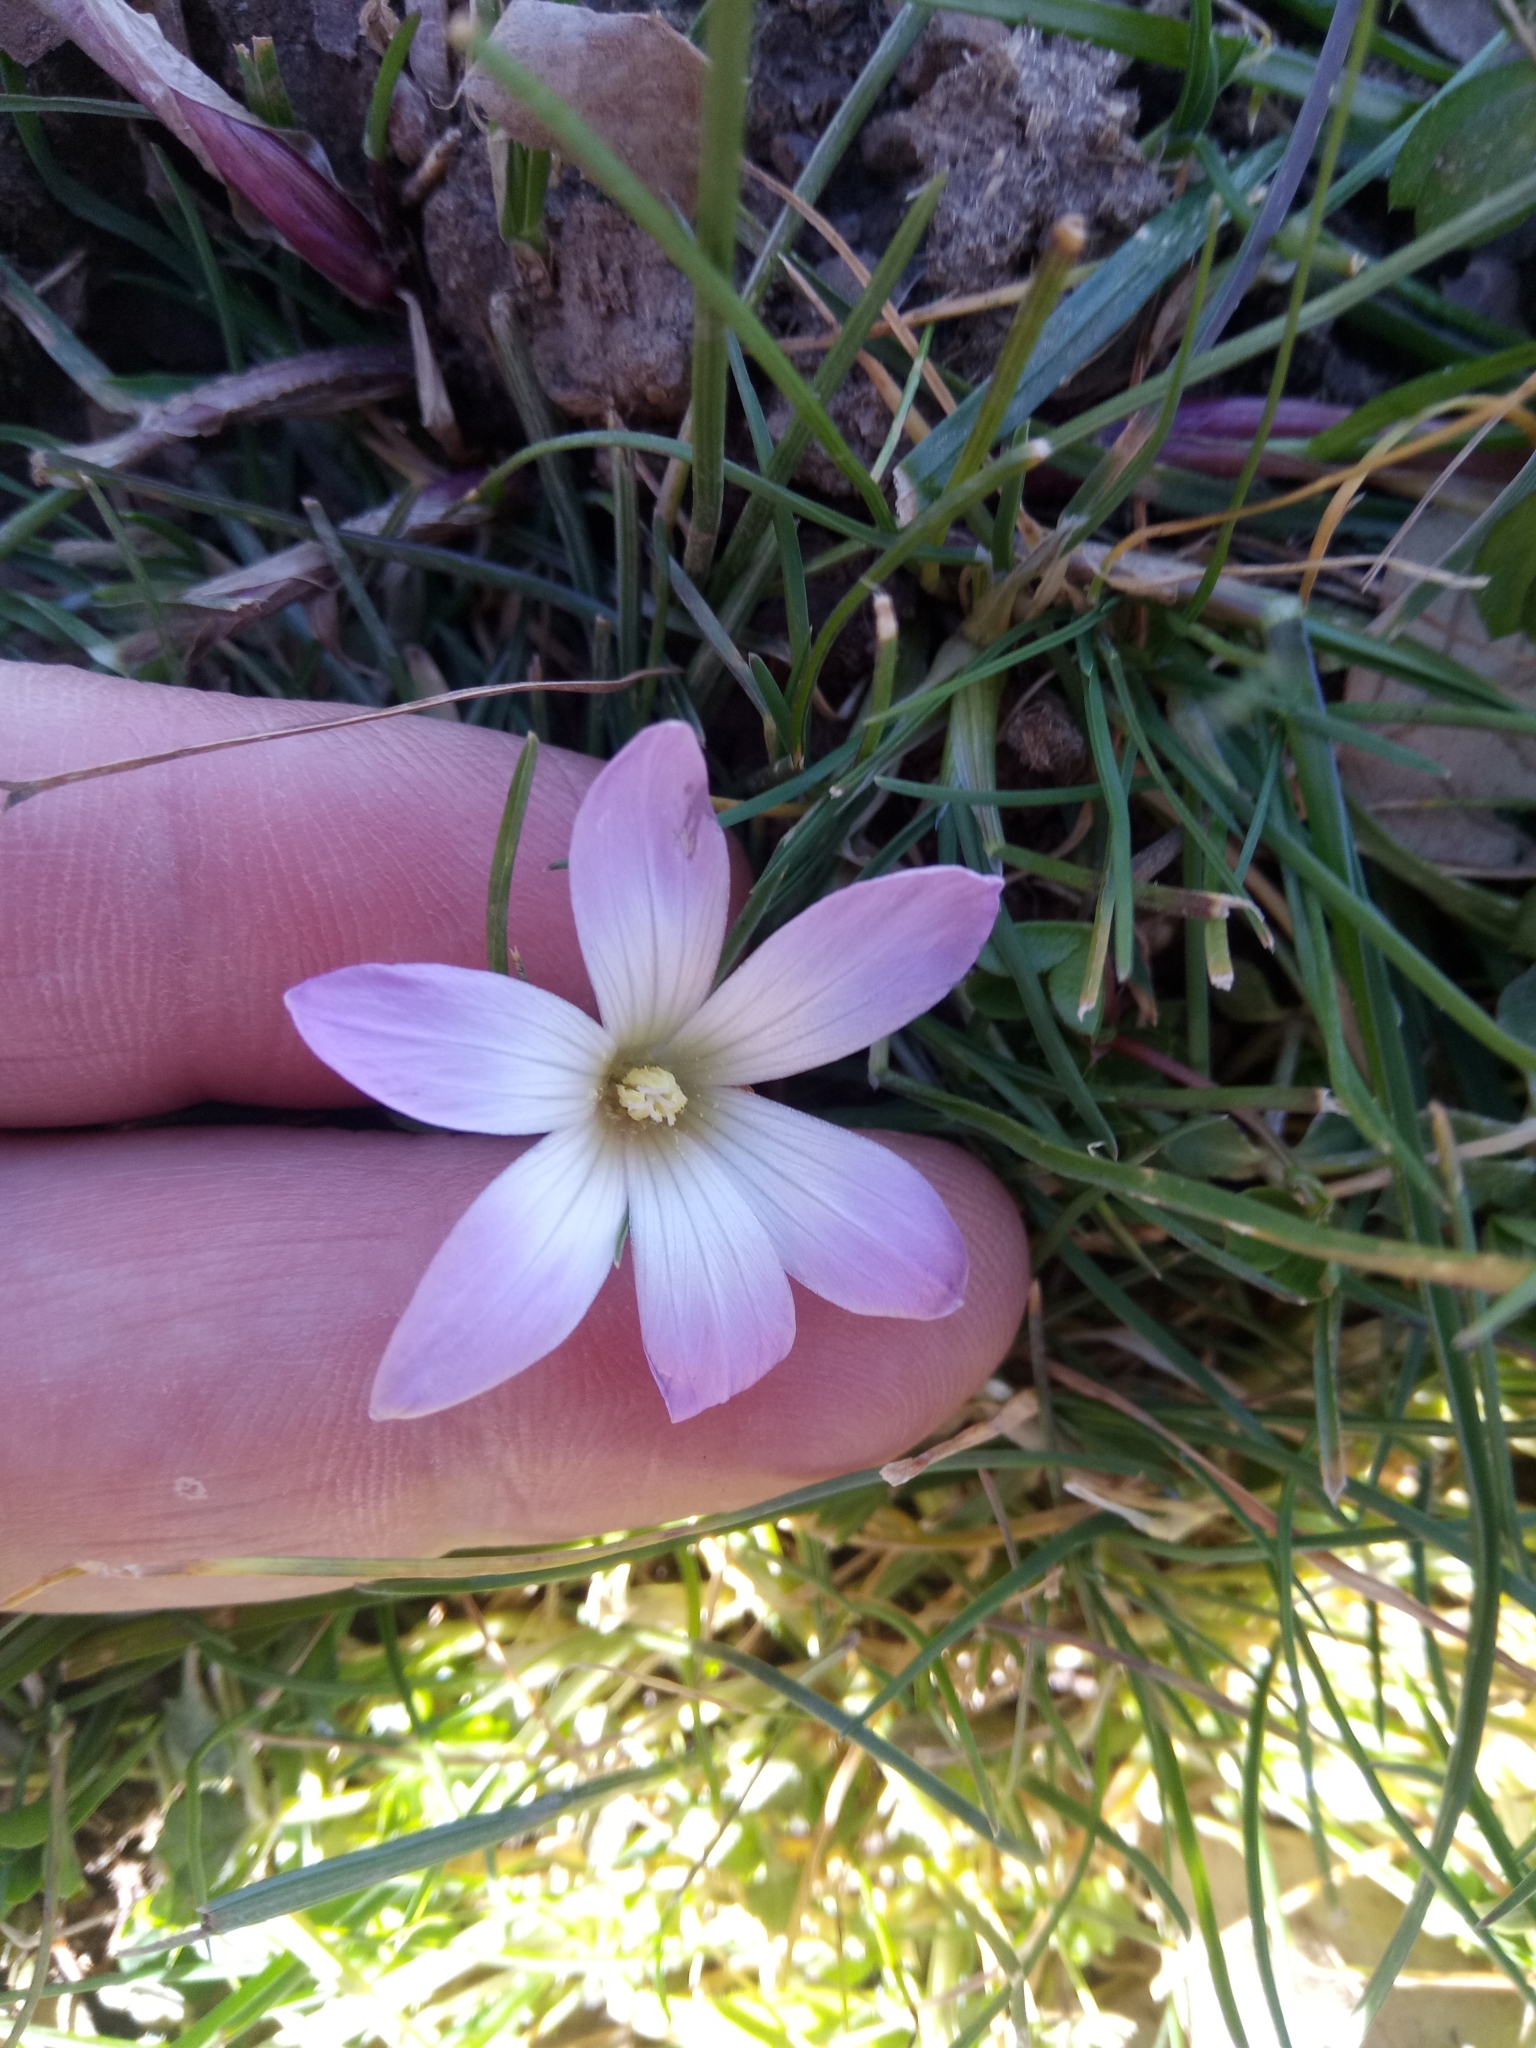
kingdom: Plantae
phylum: Tracheophyta
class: Liliopsida
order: Asparagales
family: Iridaceae
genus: Romulea
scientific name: Romulea ligustica
